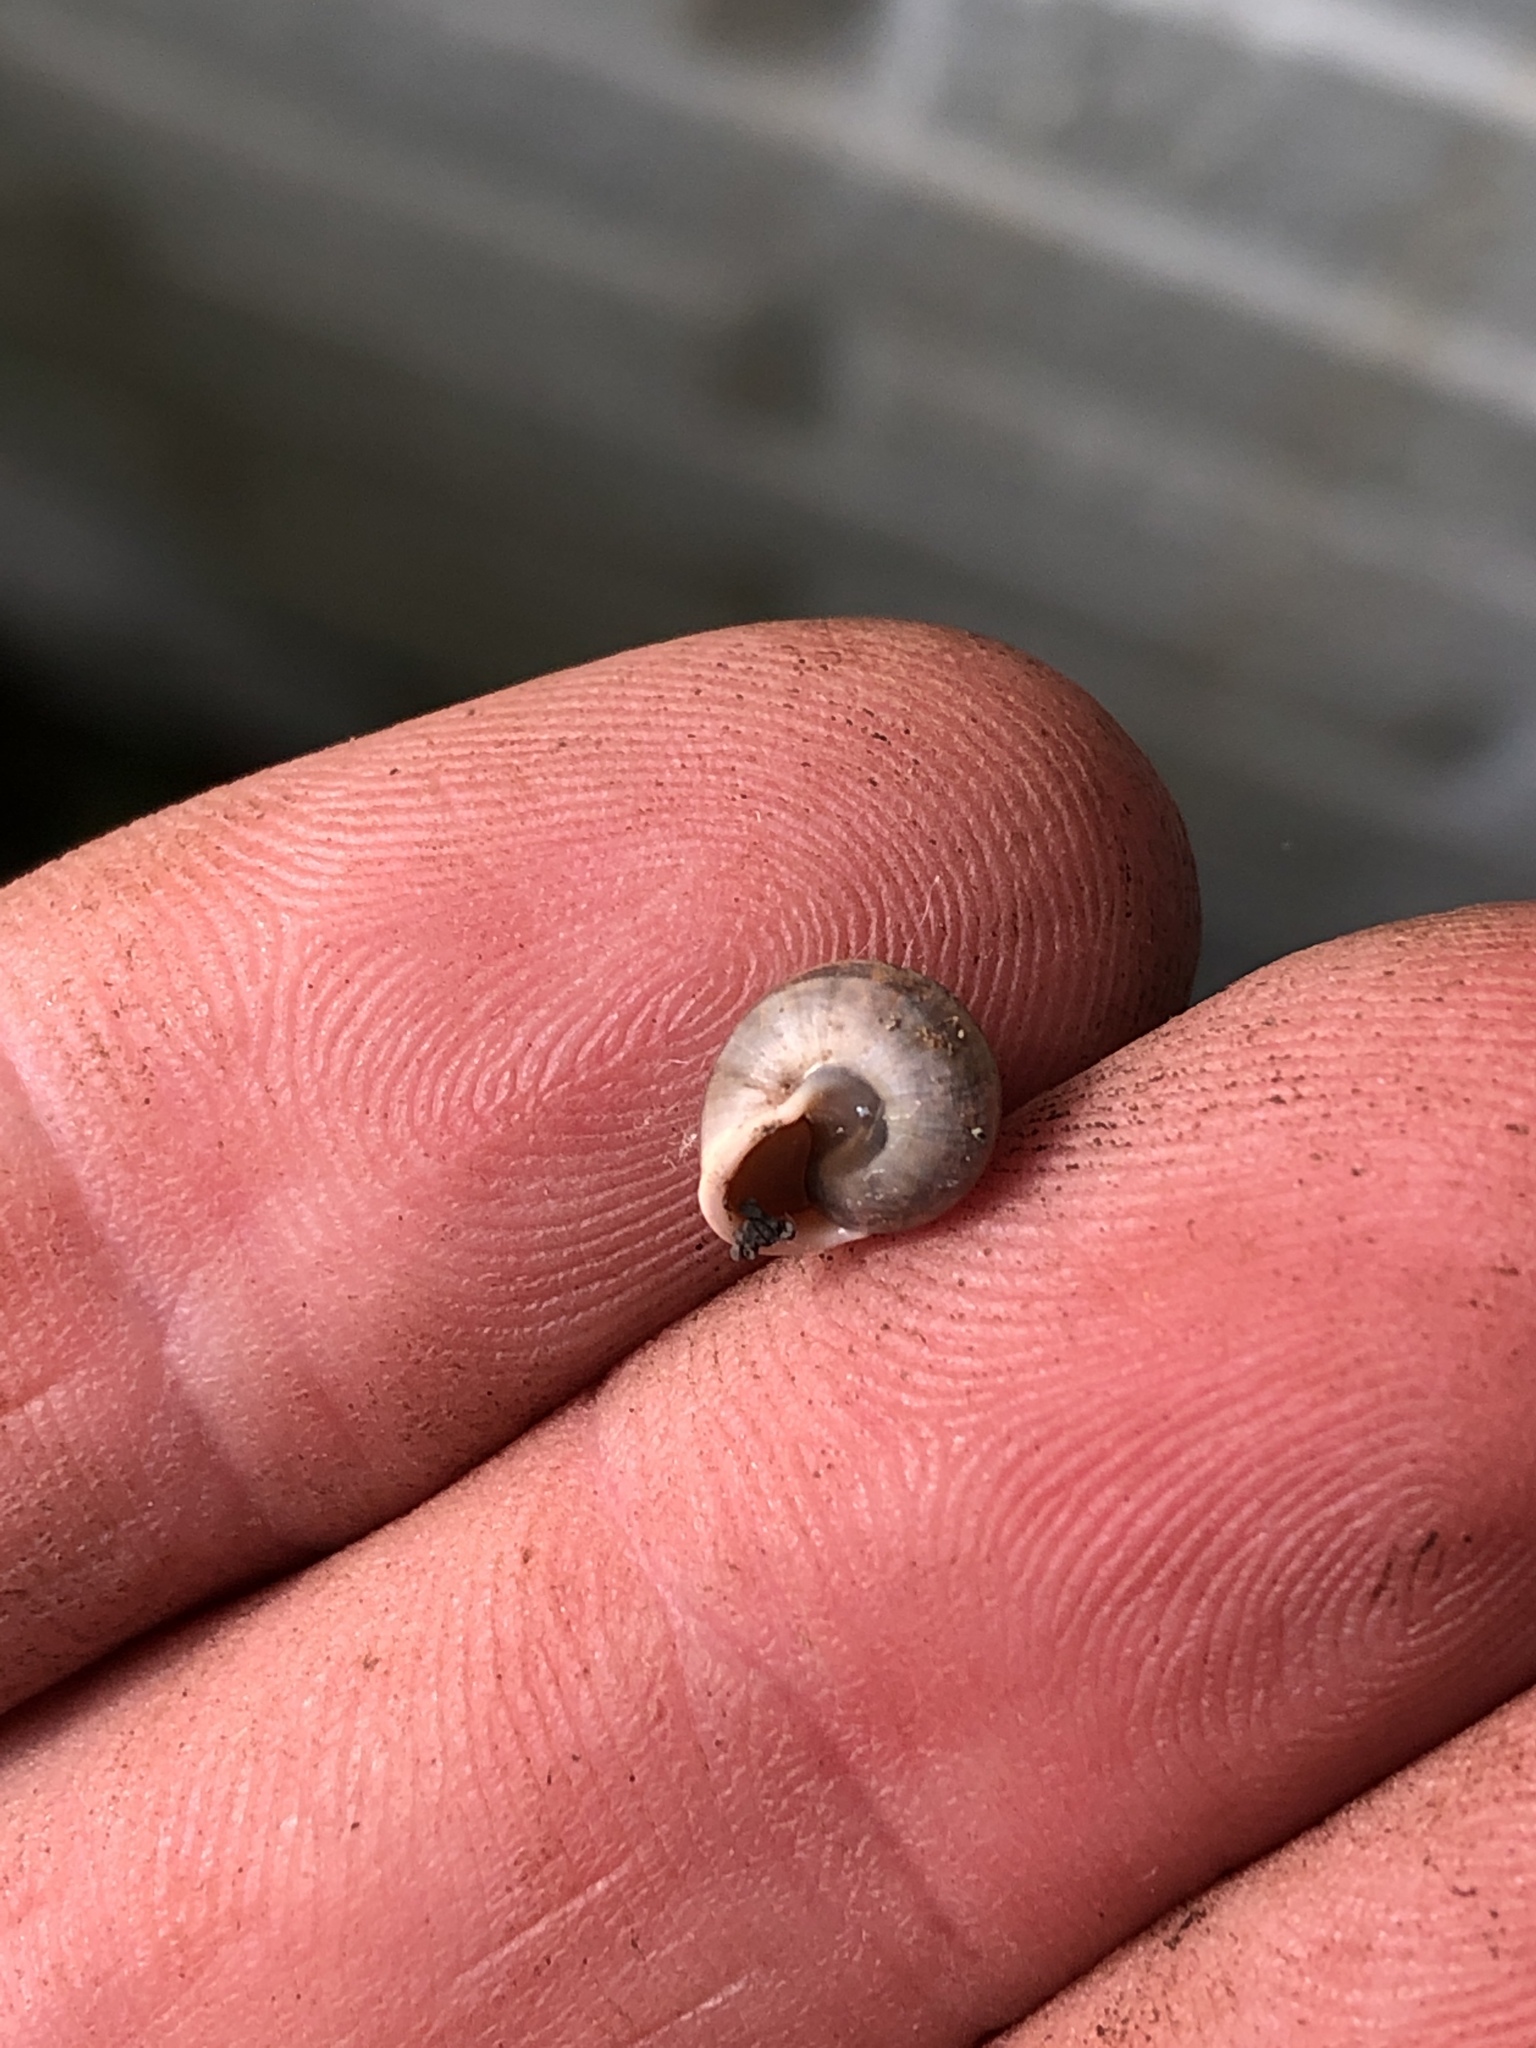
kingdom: Animalia
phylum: Mollusca
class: Gastropoda
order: Cycloneritida
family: Helicinidae
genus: Helicina
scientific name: Helicina orbiculata
